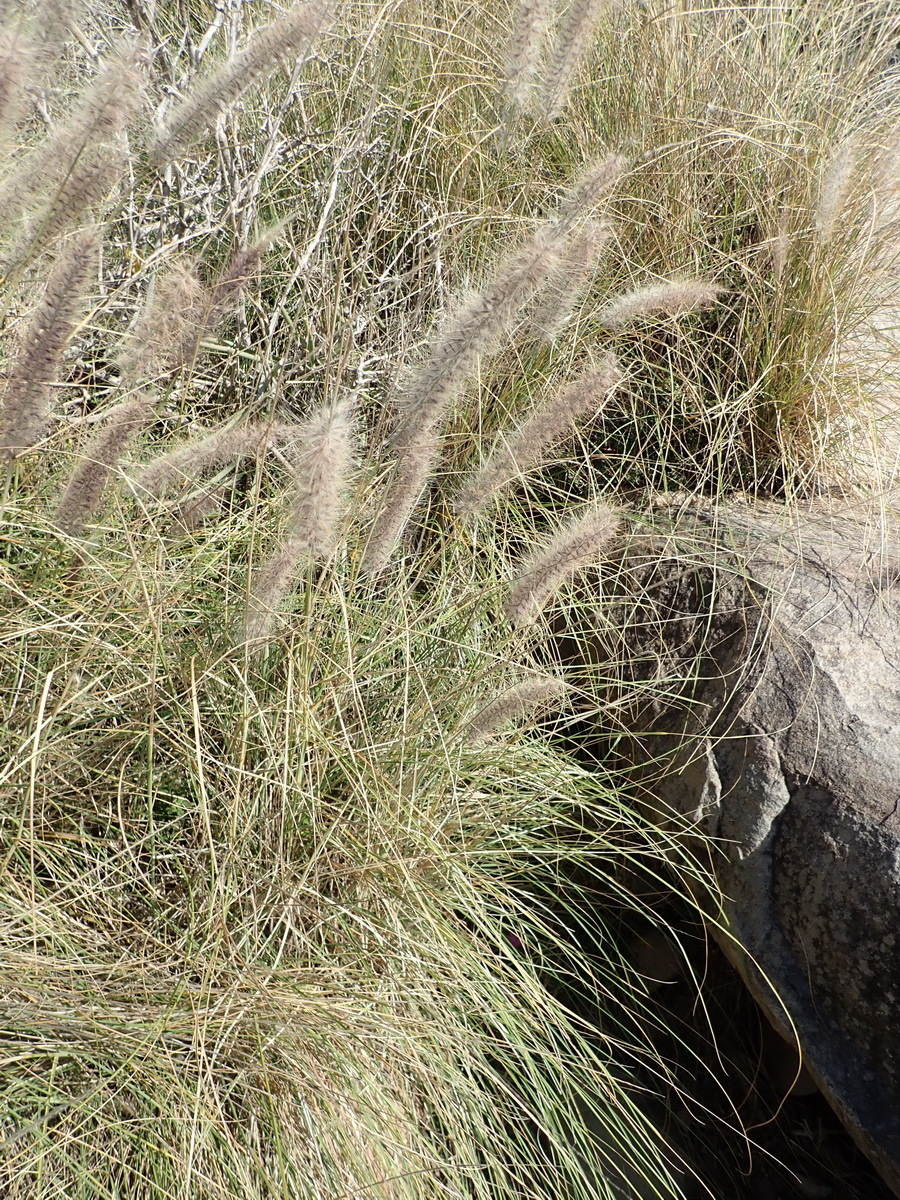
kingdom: Plantae
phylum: Tracheophyta
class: Liliopsida
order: Poales
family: Poaceae
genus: Cenchrus
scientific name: Cenchrus setaceus
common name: Crimson fountaingrass
